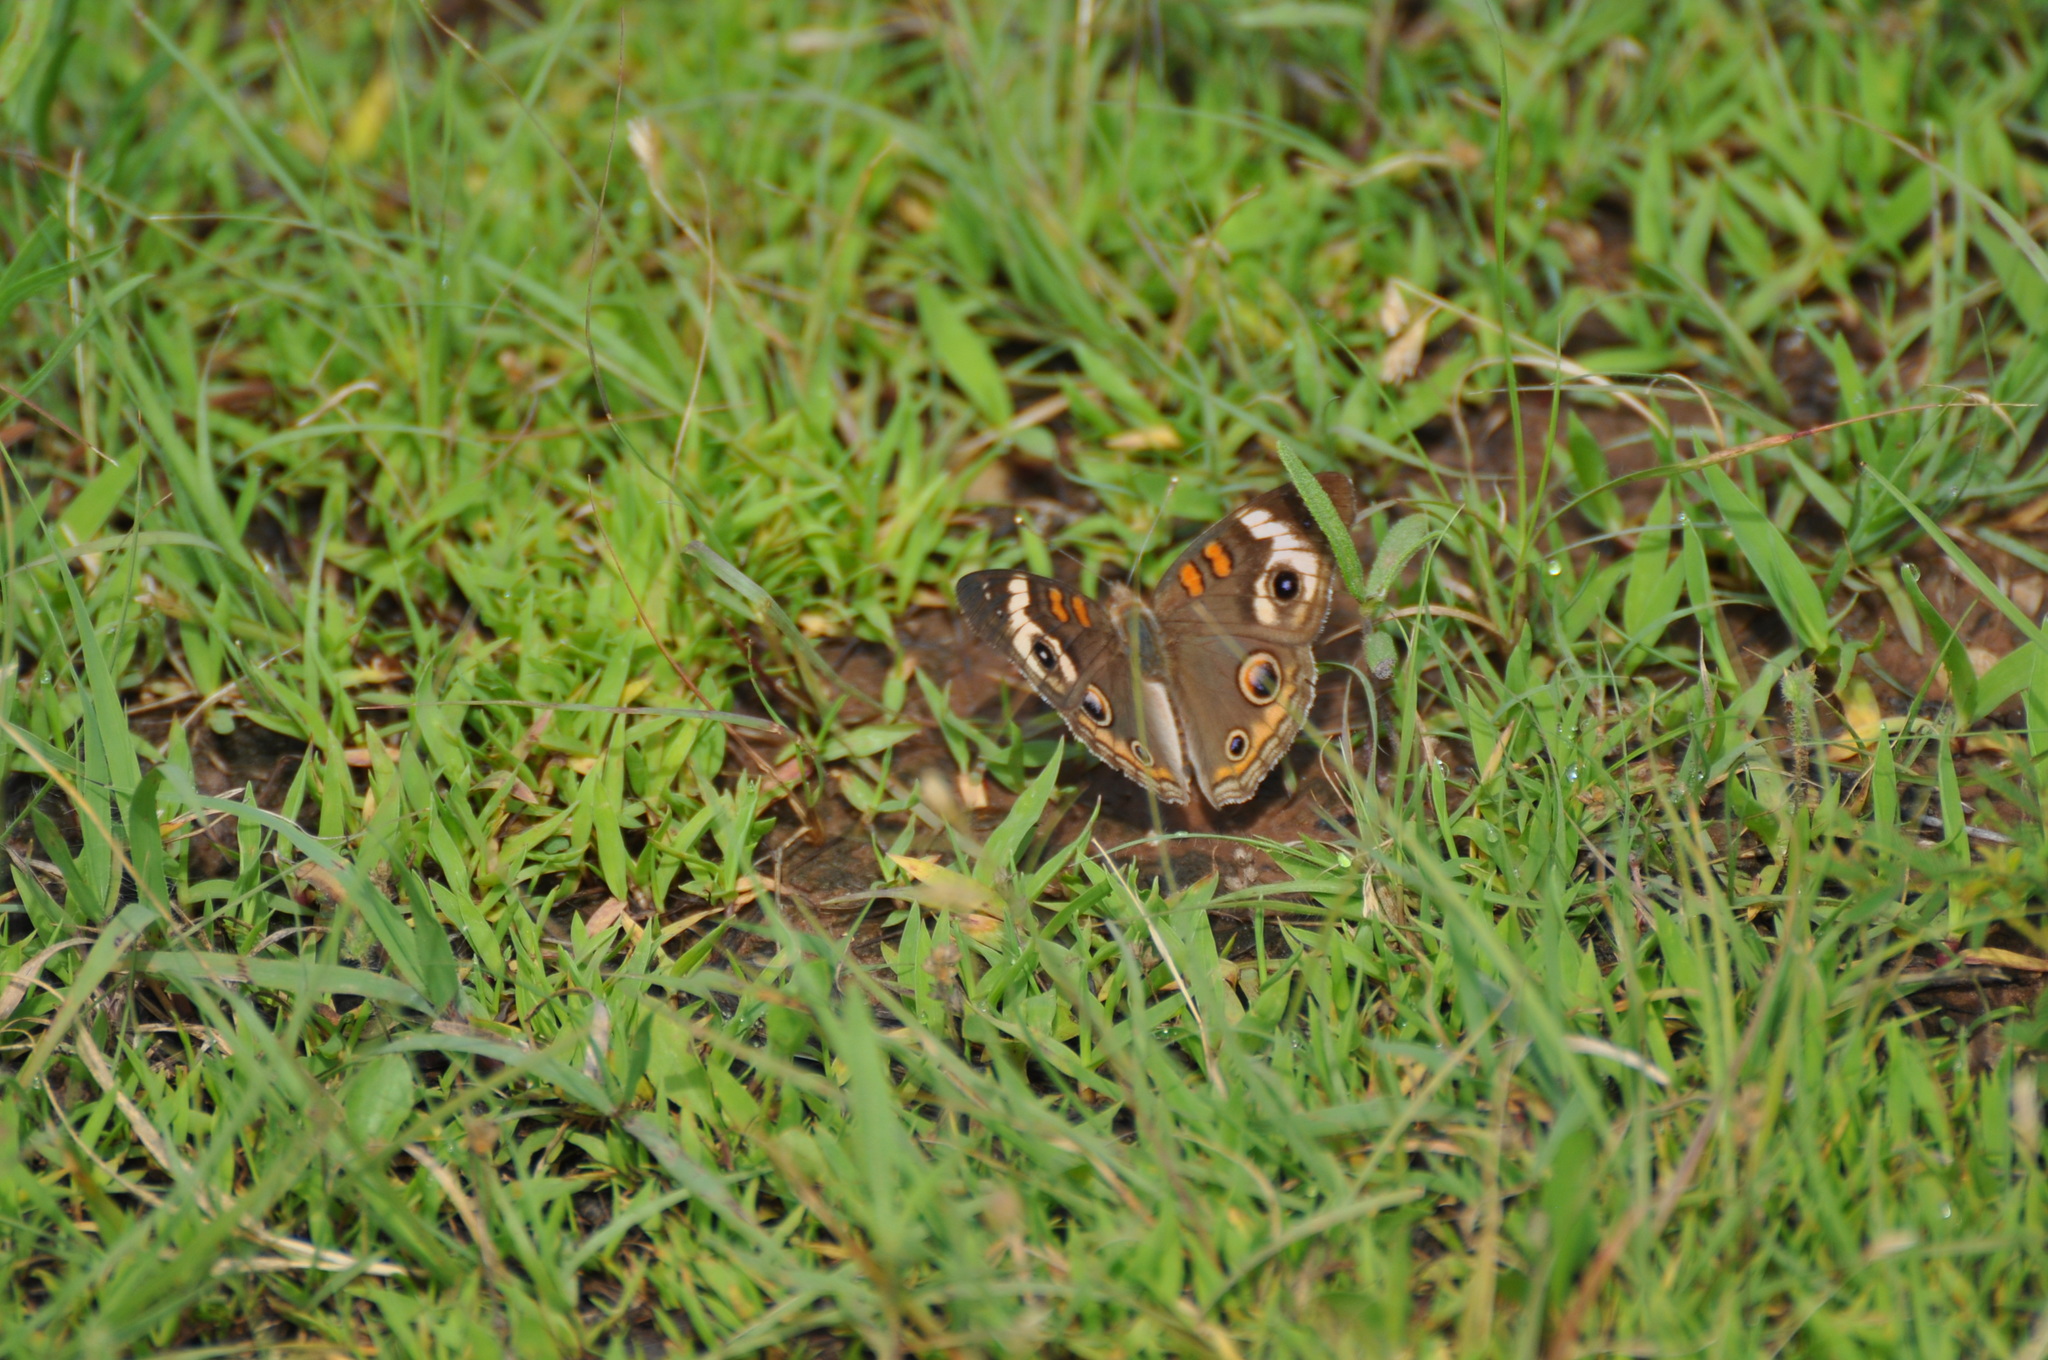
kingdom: Animalia
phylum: Arthropoda
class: Insecta
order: Lepidoptera
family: Nymphalidae
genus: Junonia
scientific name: Junonia coenia
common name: Common buckeye
